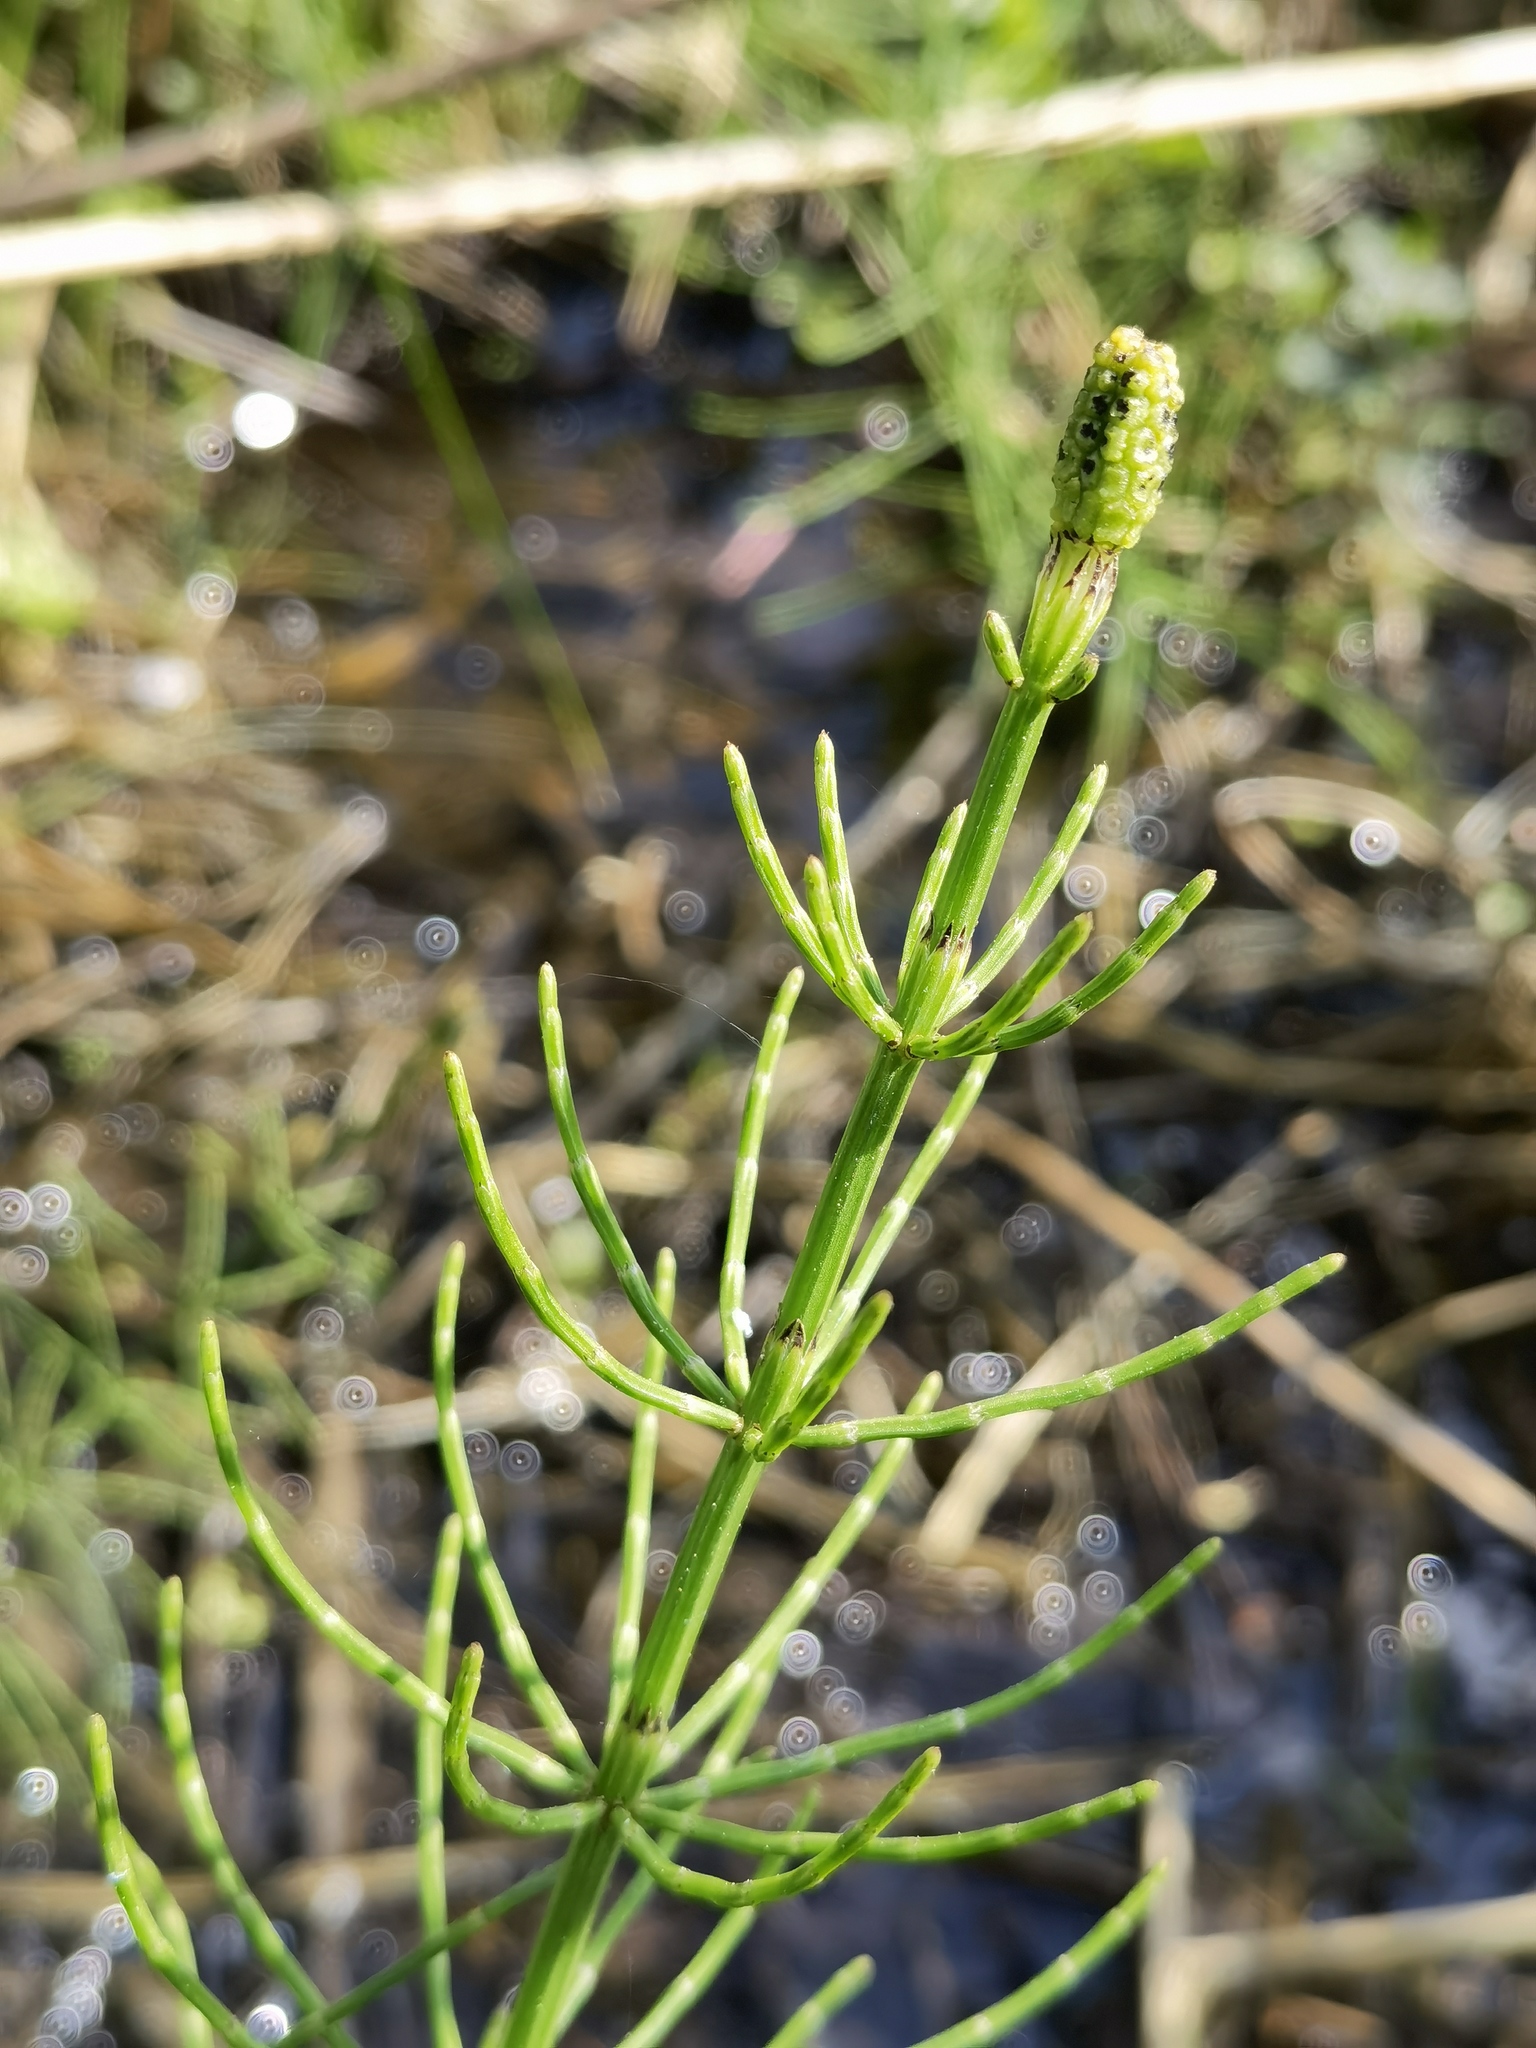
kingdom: Plantae
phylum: Tracheophyta
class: Polypodiopsida
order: Equisetales
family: Equisetaceae
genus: Equisetum
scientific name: Equisetum palustre
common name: Marsh horsetail
